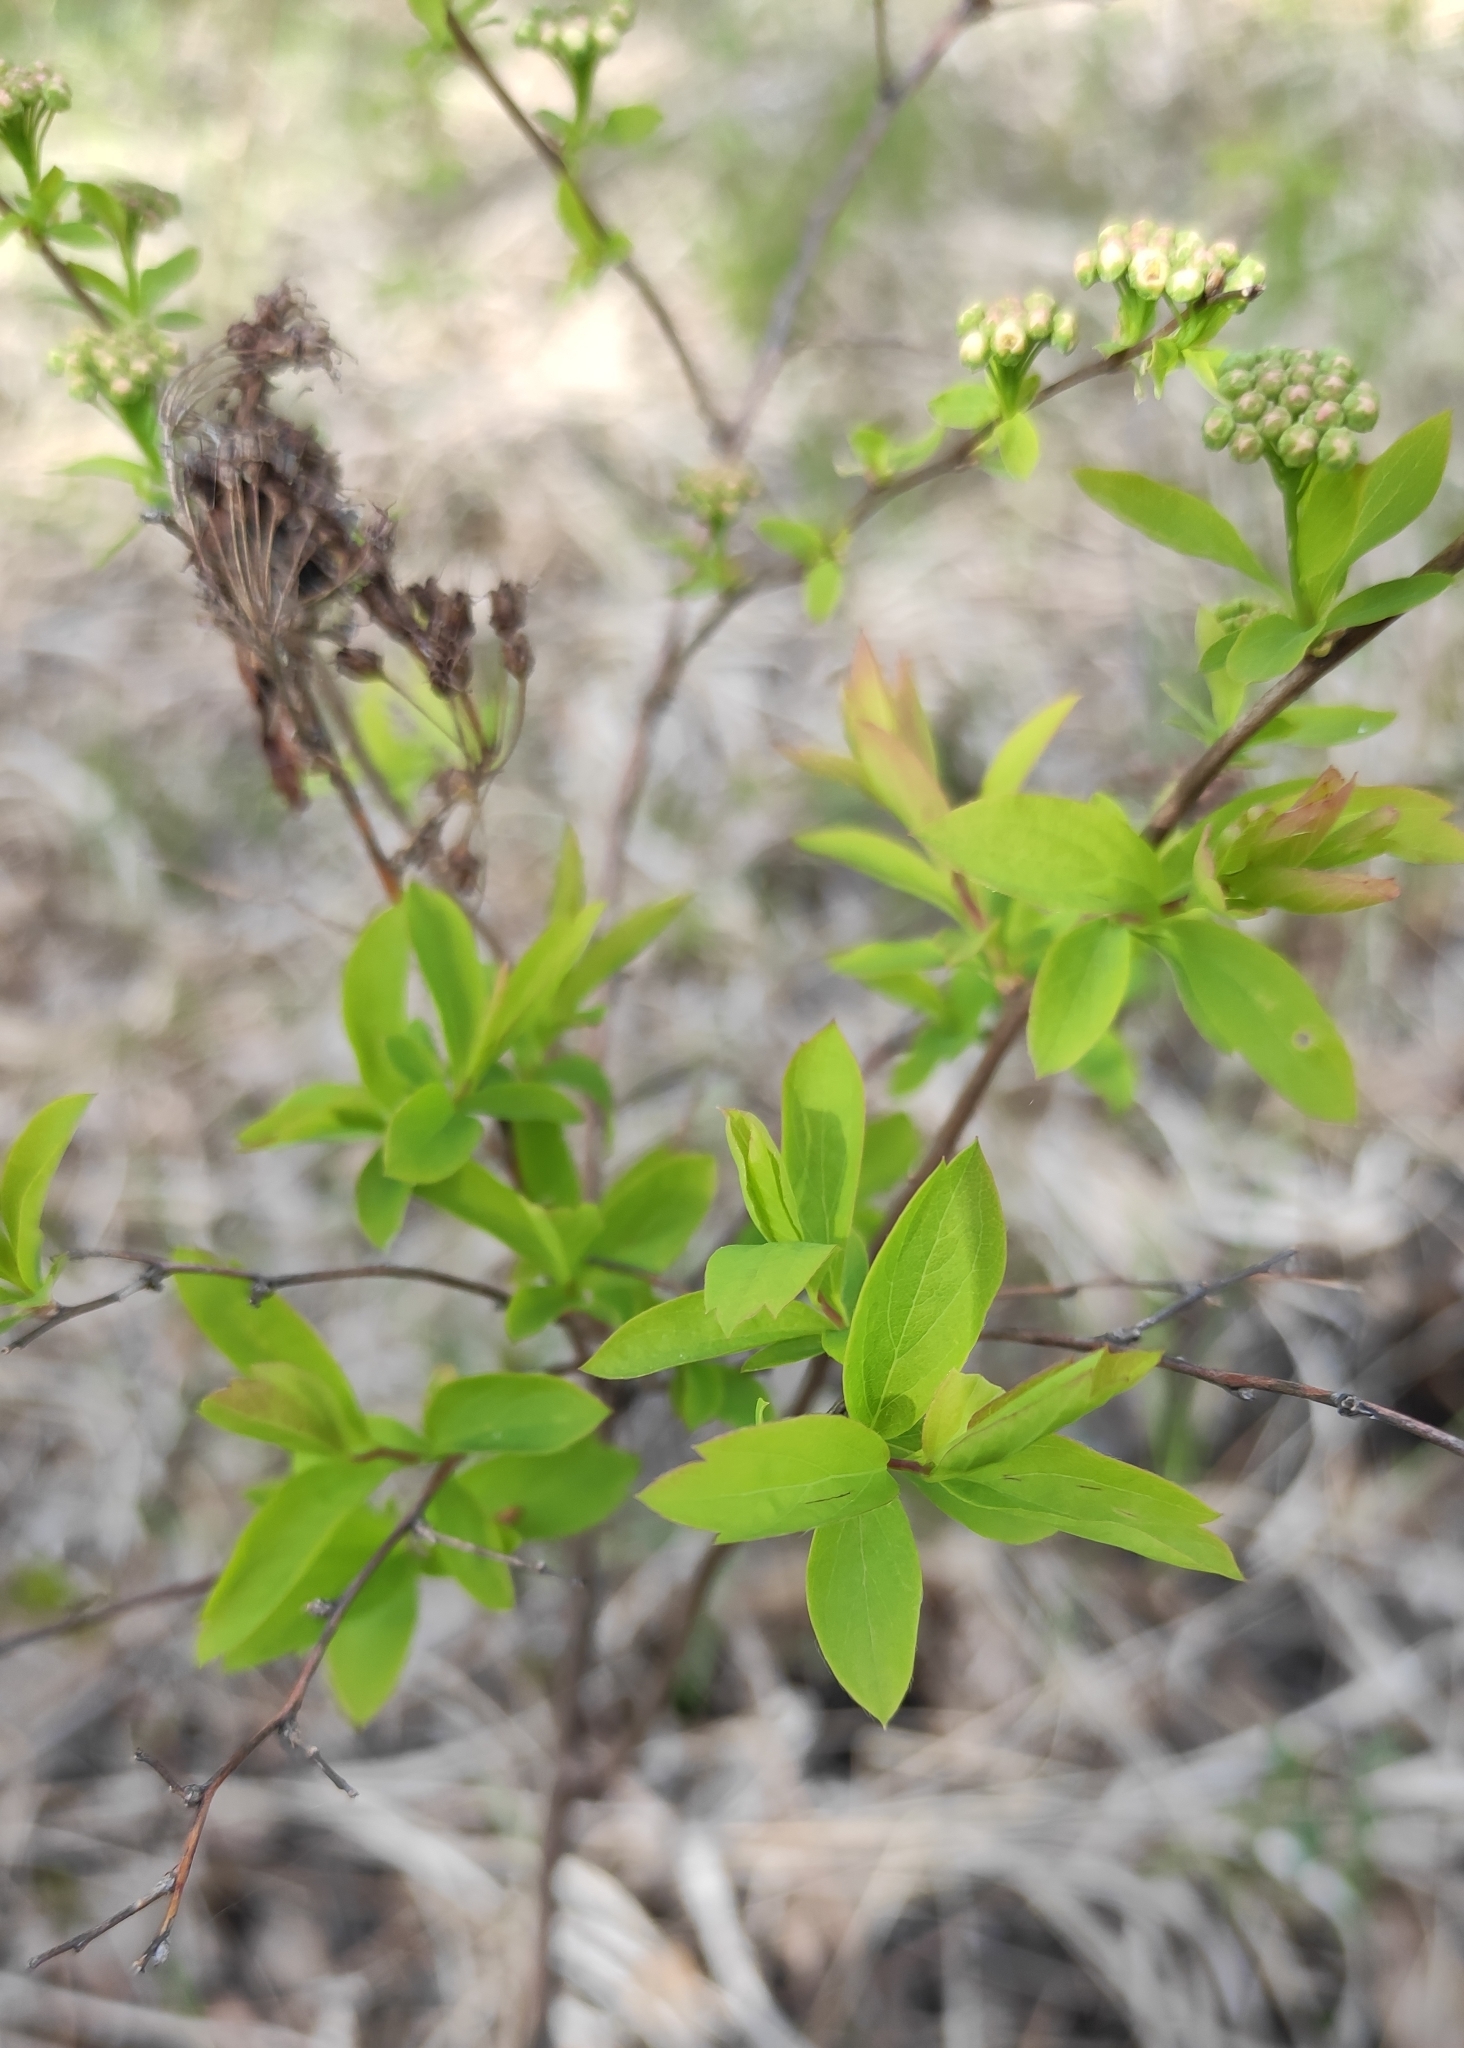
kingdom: Plantae
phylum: Tracheophyta
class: Magnoliopsida
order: Rosales
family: Rosaceae
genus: Spiraea
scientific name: Spiraea media
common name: Russian spiraea
